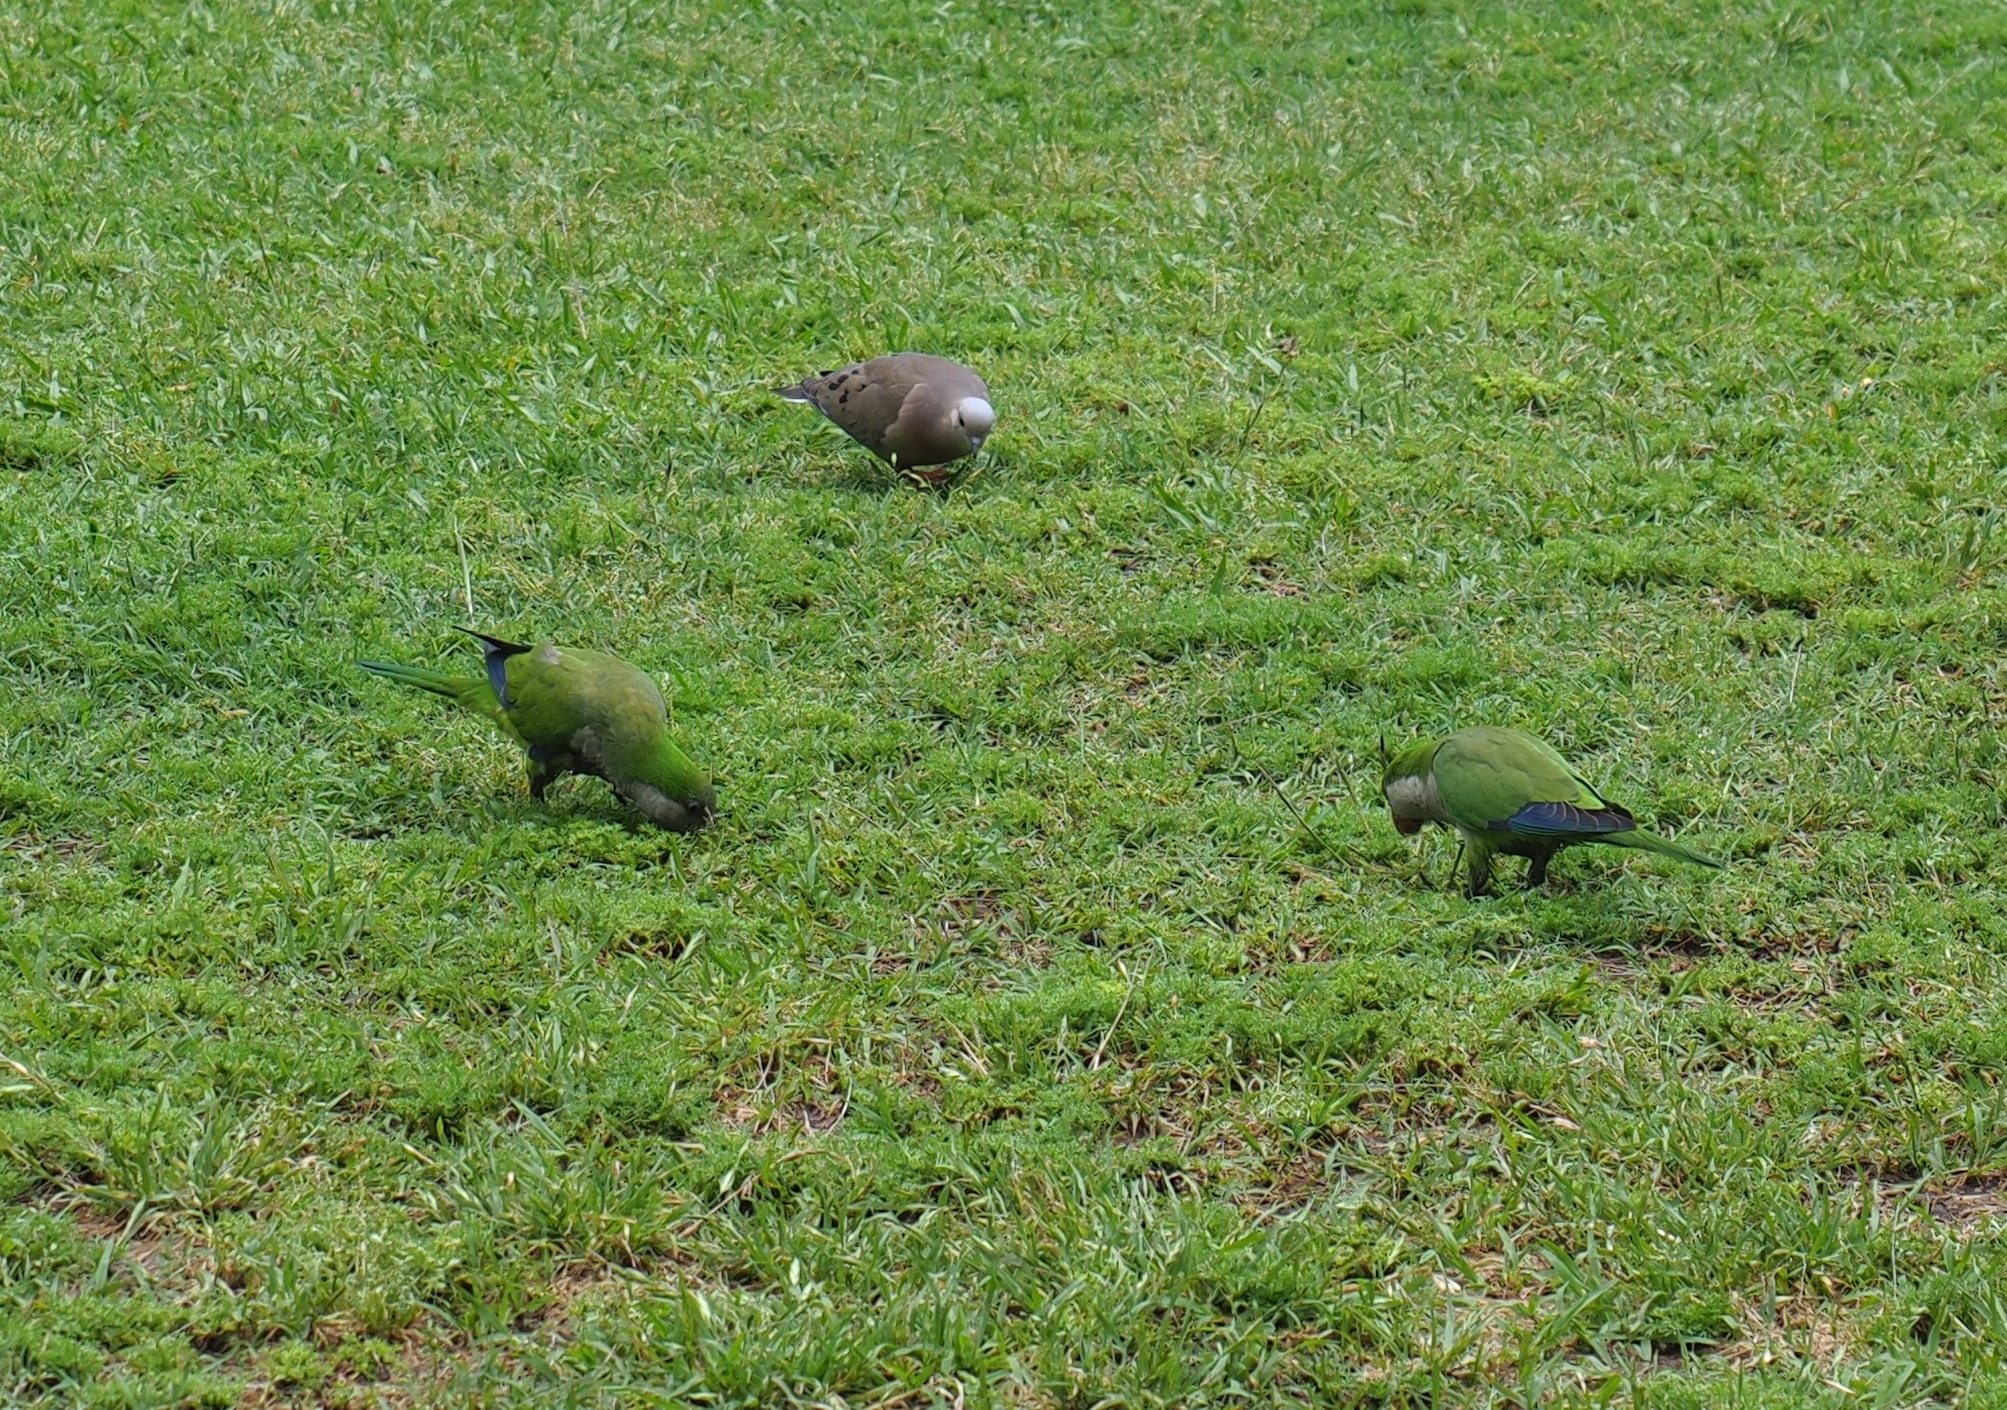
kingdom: Animalia
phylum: Chordata
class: Aves
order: Columbiformes
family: Columbidae
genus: Zenaida
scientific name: Zenaida auriculata
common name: Eared dove
